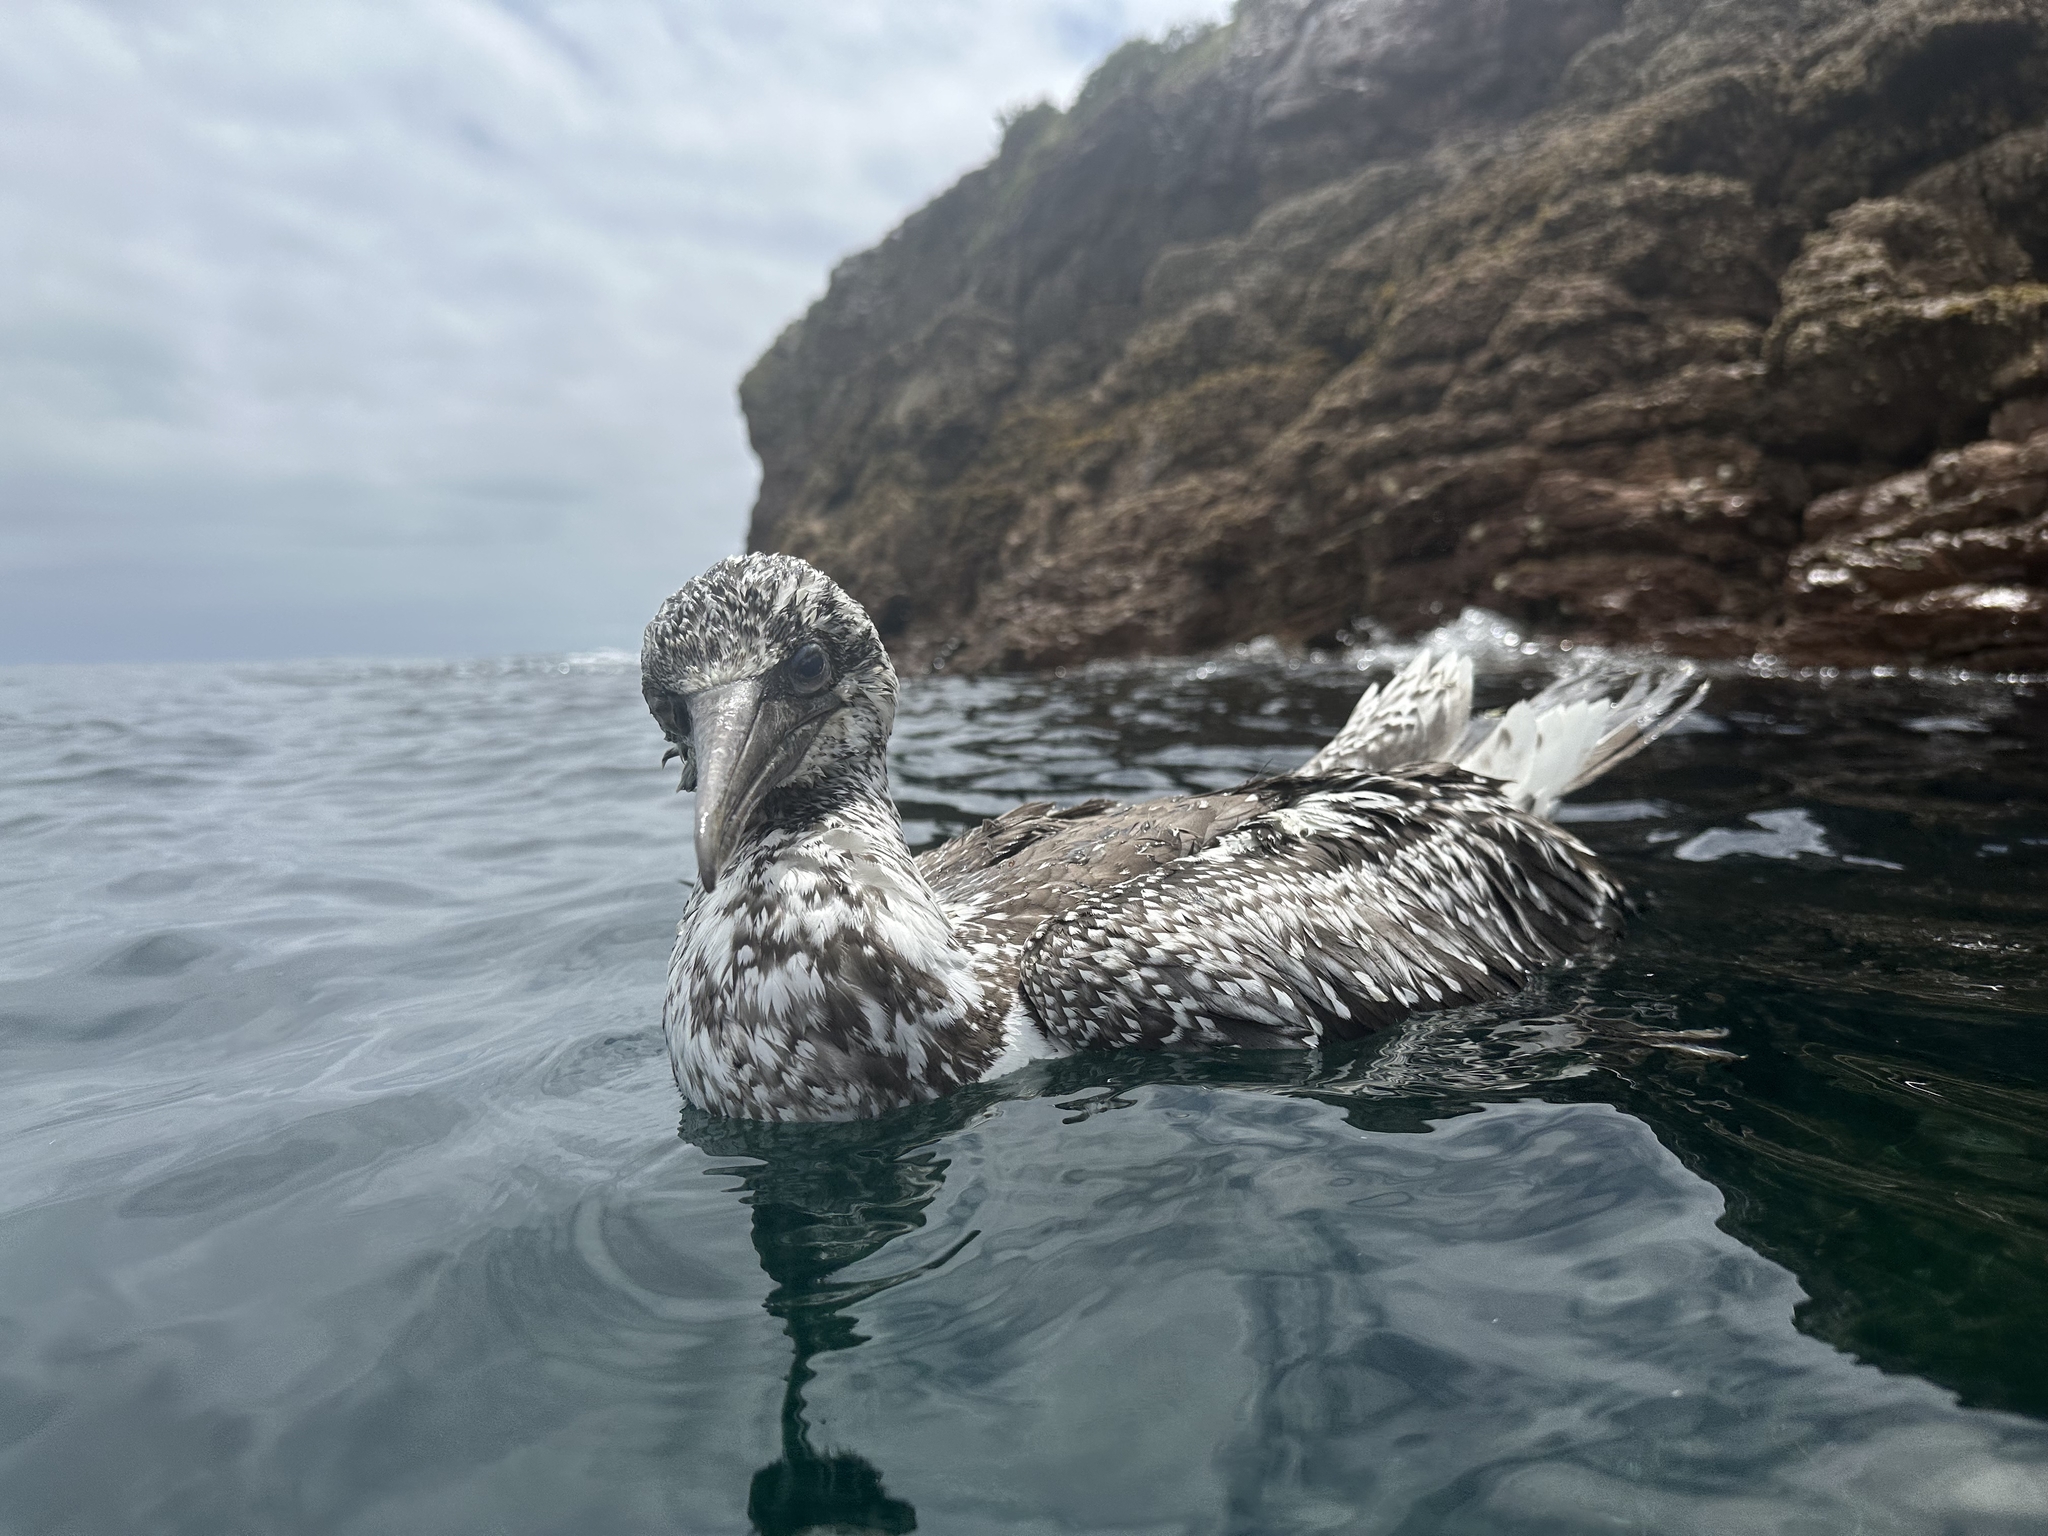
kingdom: Animalia
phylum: Chordata
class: Aves
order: Suliformes
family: Sulidae
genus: Morus
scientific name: Morus serrator
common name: Australasian gannet
